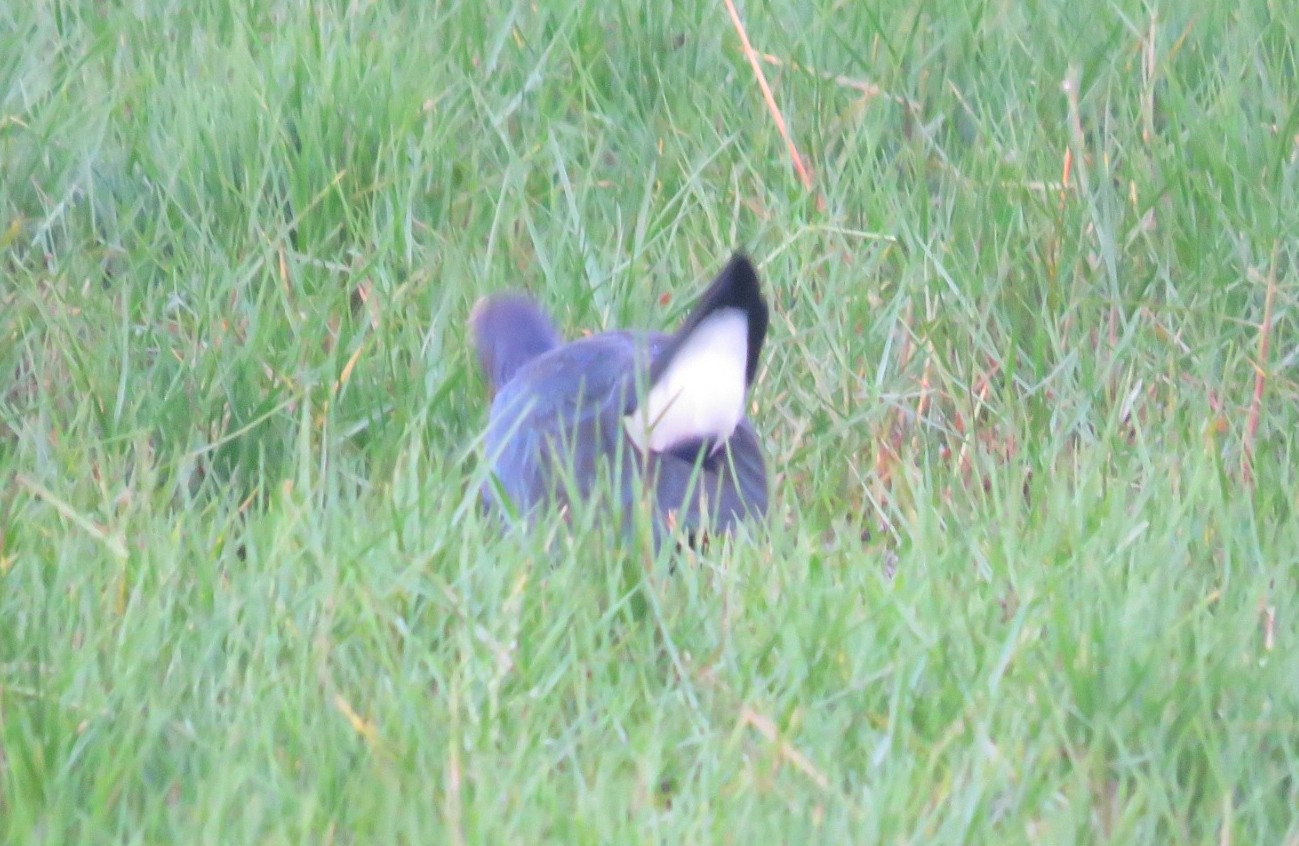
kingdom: Animalia
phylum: Chordata
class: Aves
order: Gruiformes
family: Rallidae
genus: Porphyrio
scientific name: Porphyrio porphyrio
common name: Purple swamphen
